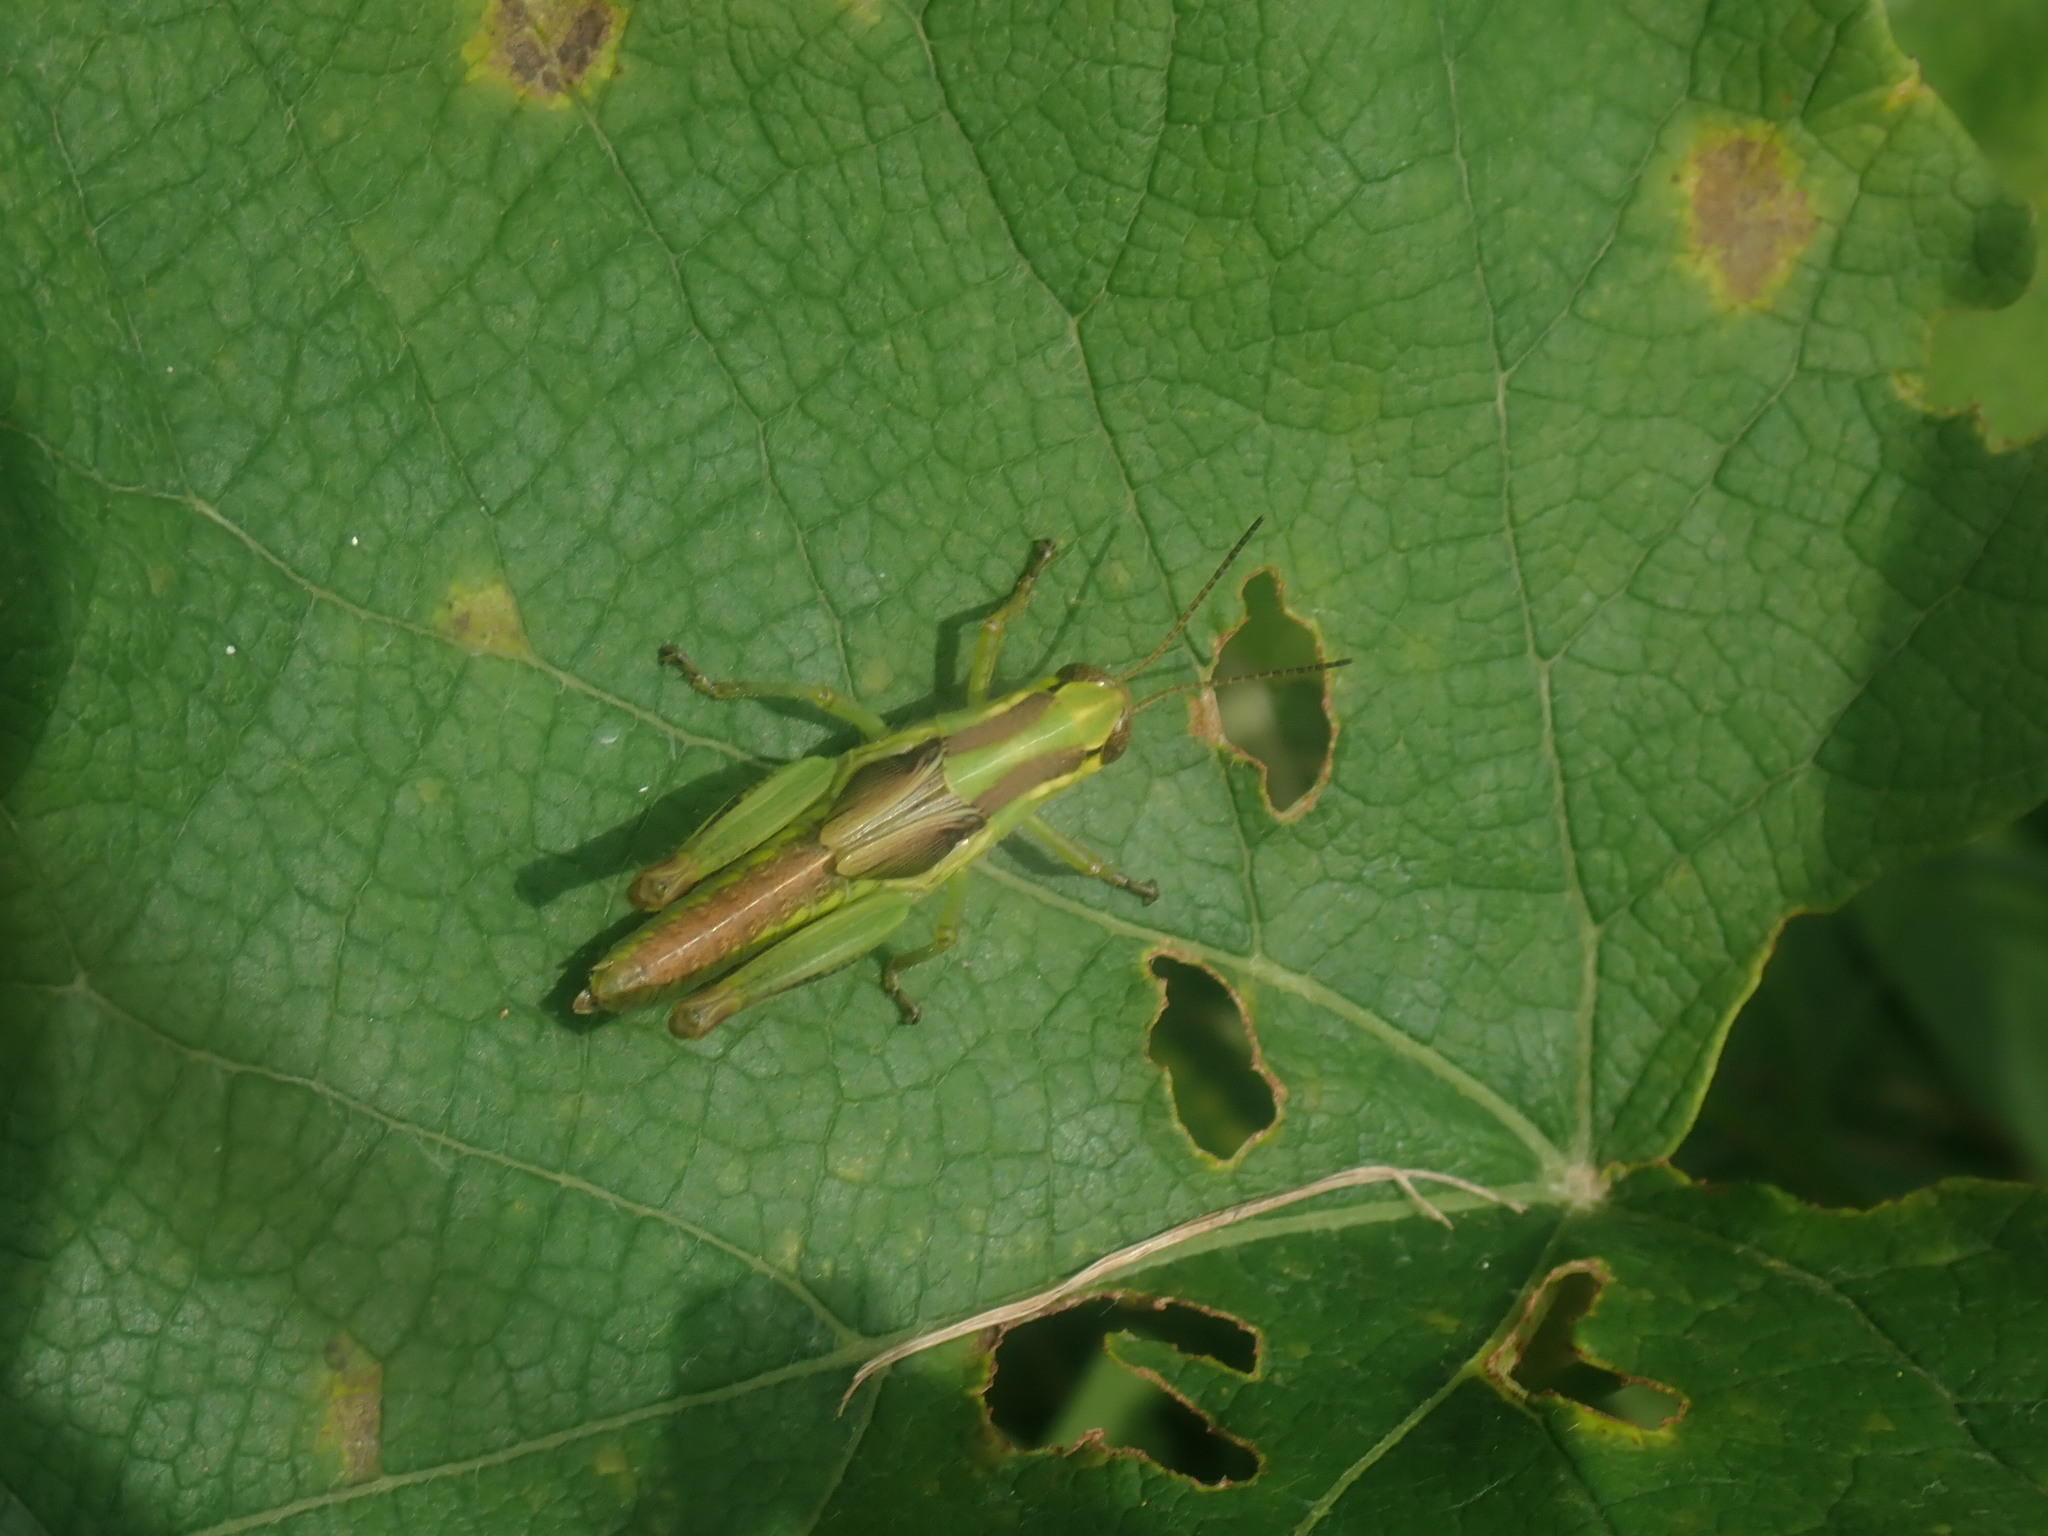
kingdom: Animalia
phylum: Arthropoda
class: Insecta
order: Orthoptera
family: Acrididae
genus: Melanoplus
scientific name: Melanoplus
